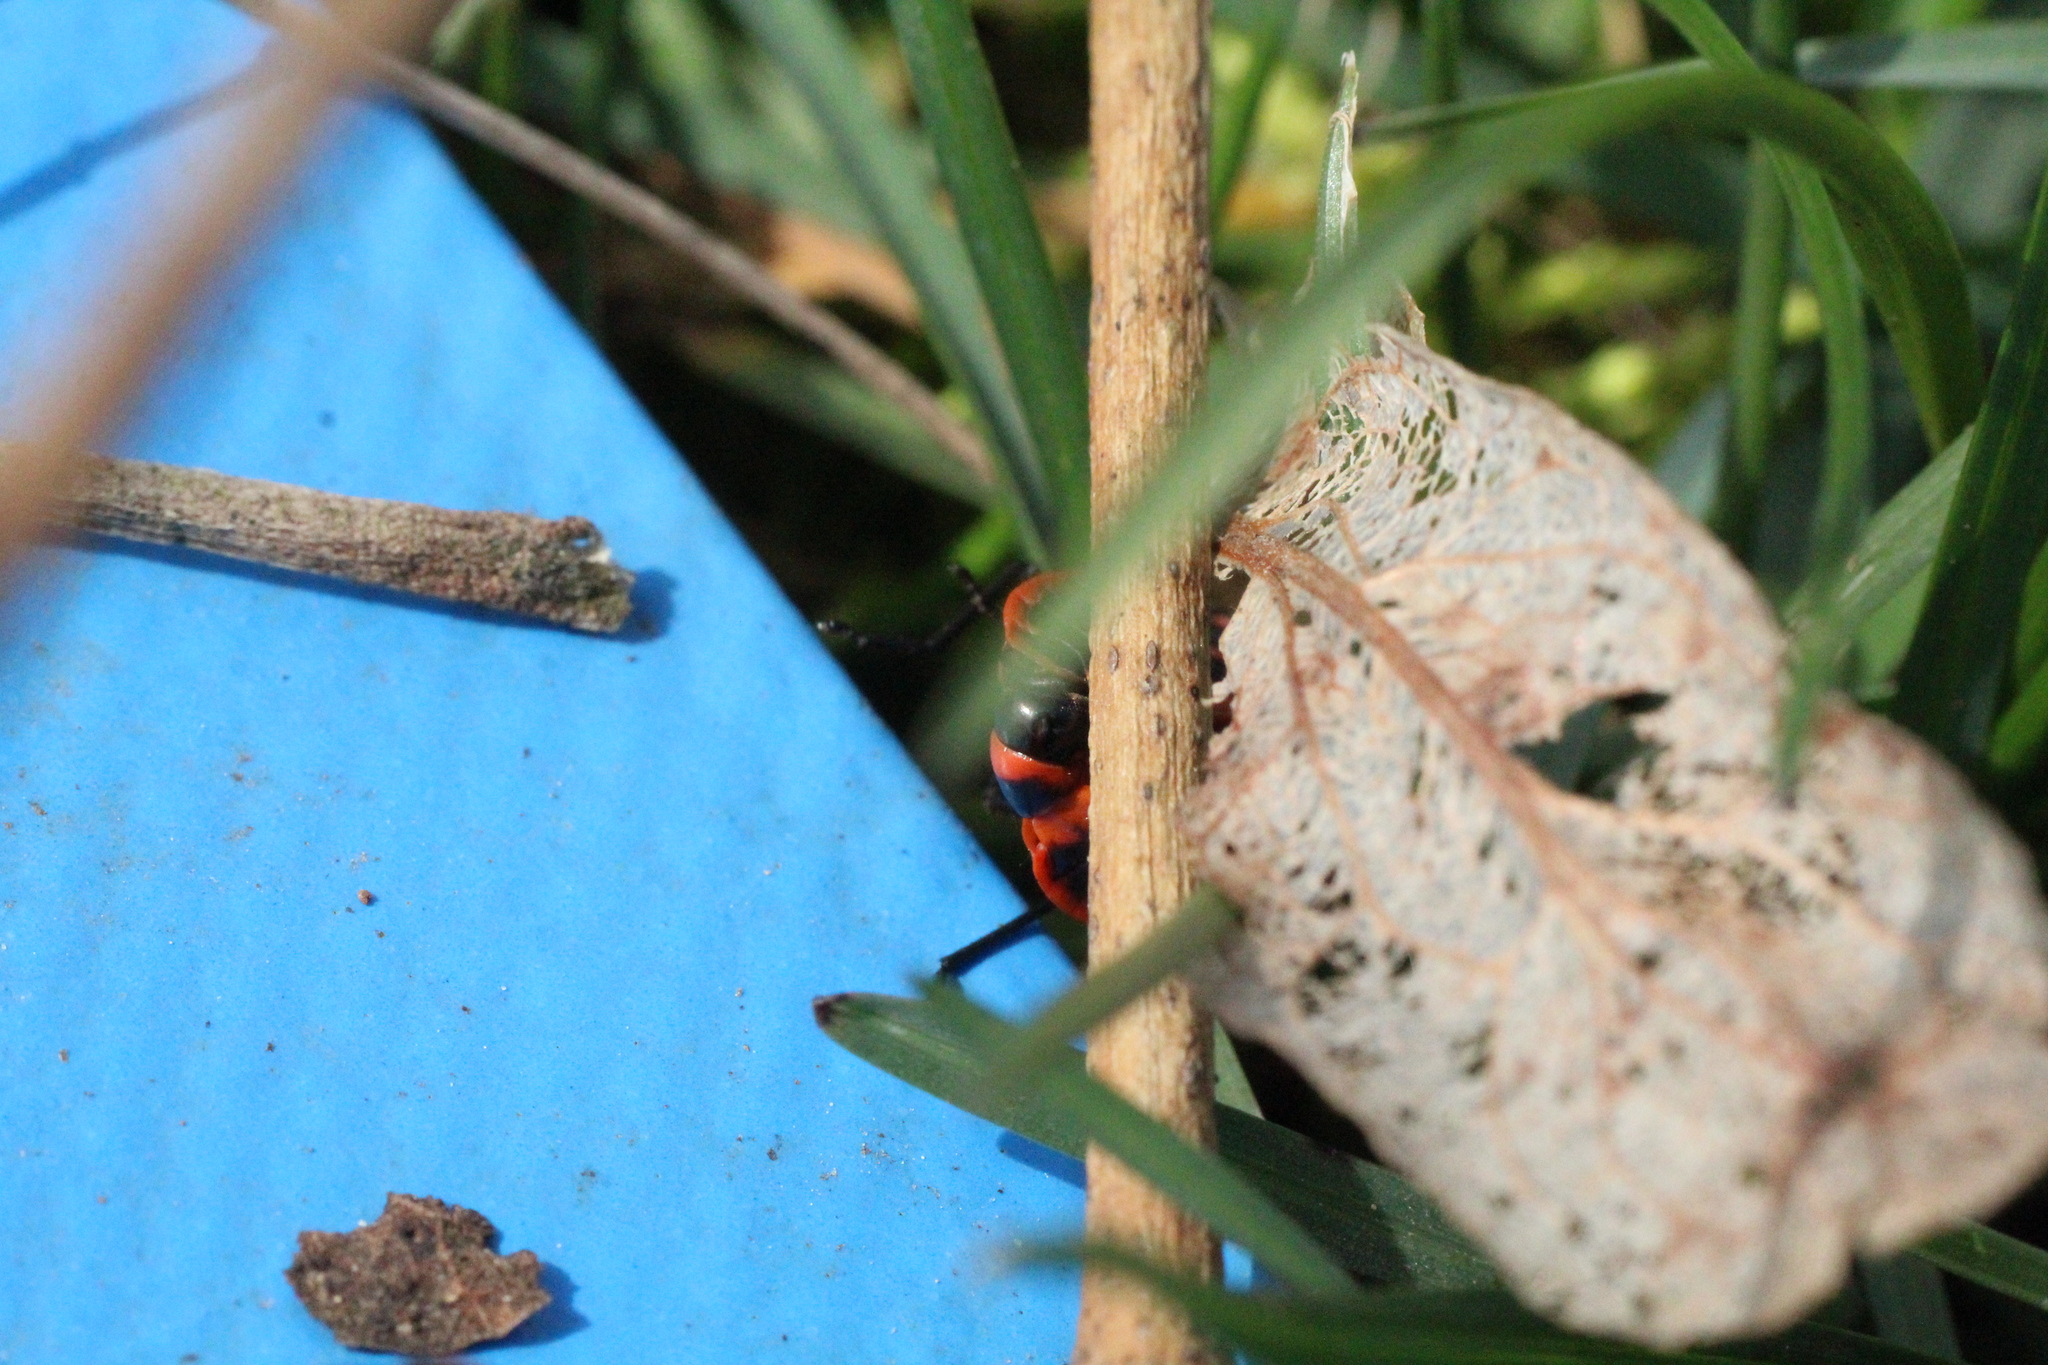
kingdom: Animalia
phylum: Arthropoda
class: Insecta
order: Hemiptera
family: Pyrrhocoridae
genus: Pyrrhocoris
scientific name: Pyrrhocoris apterus
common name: Firebug
